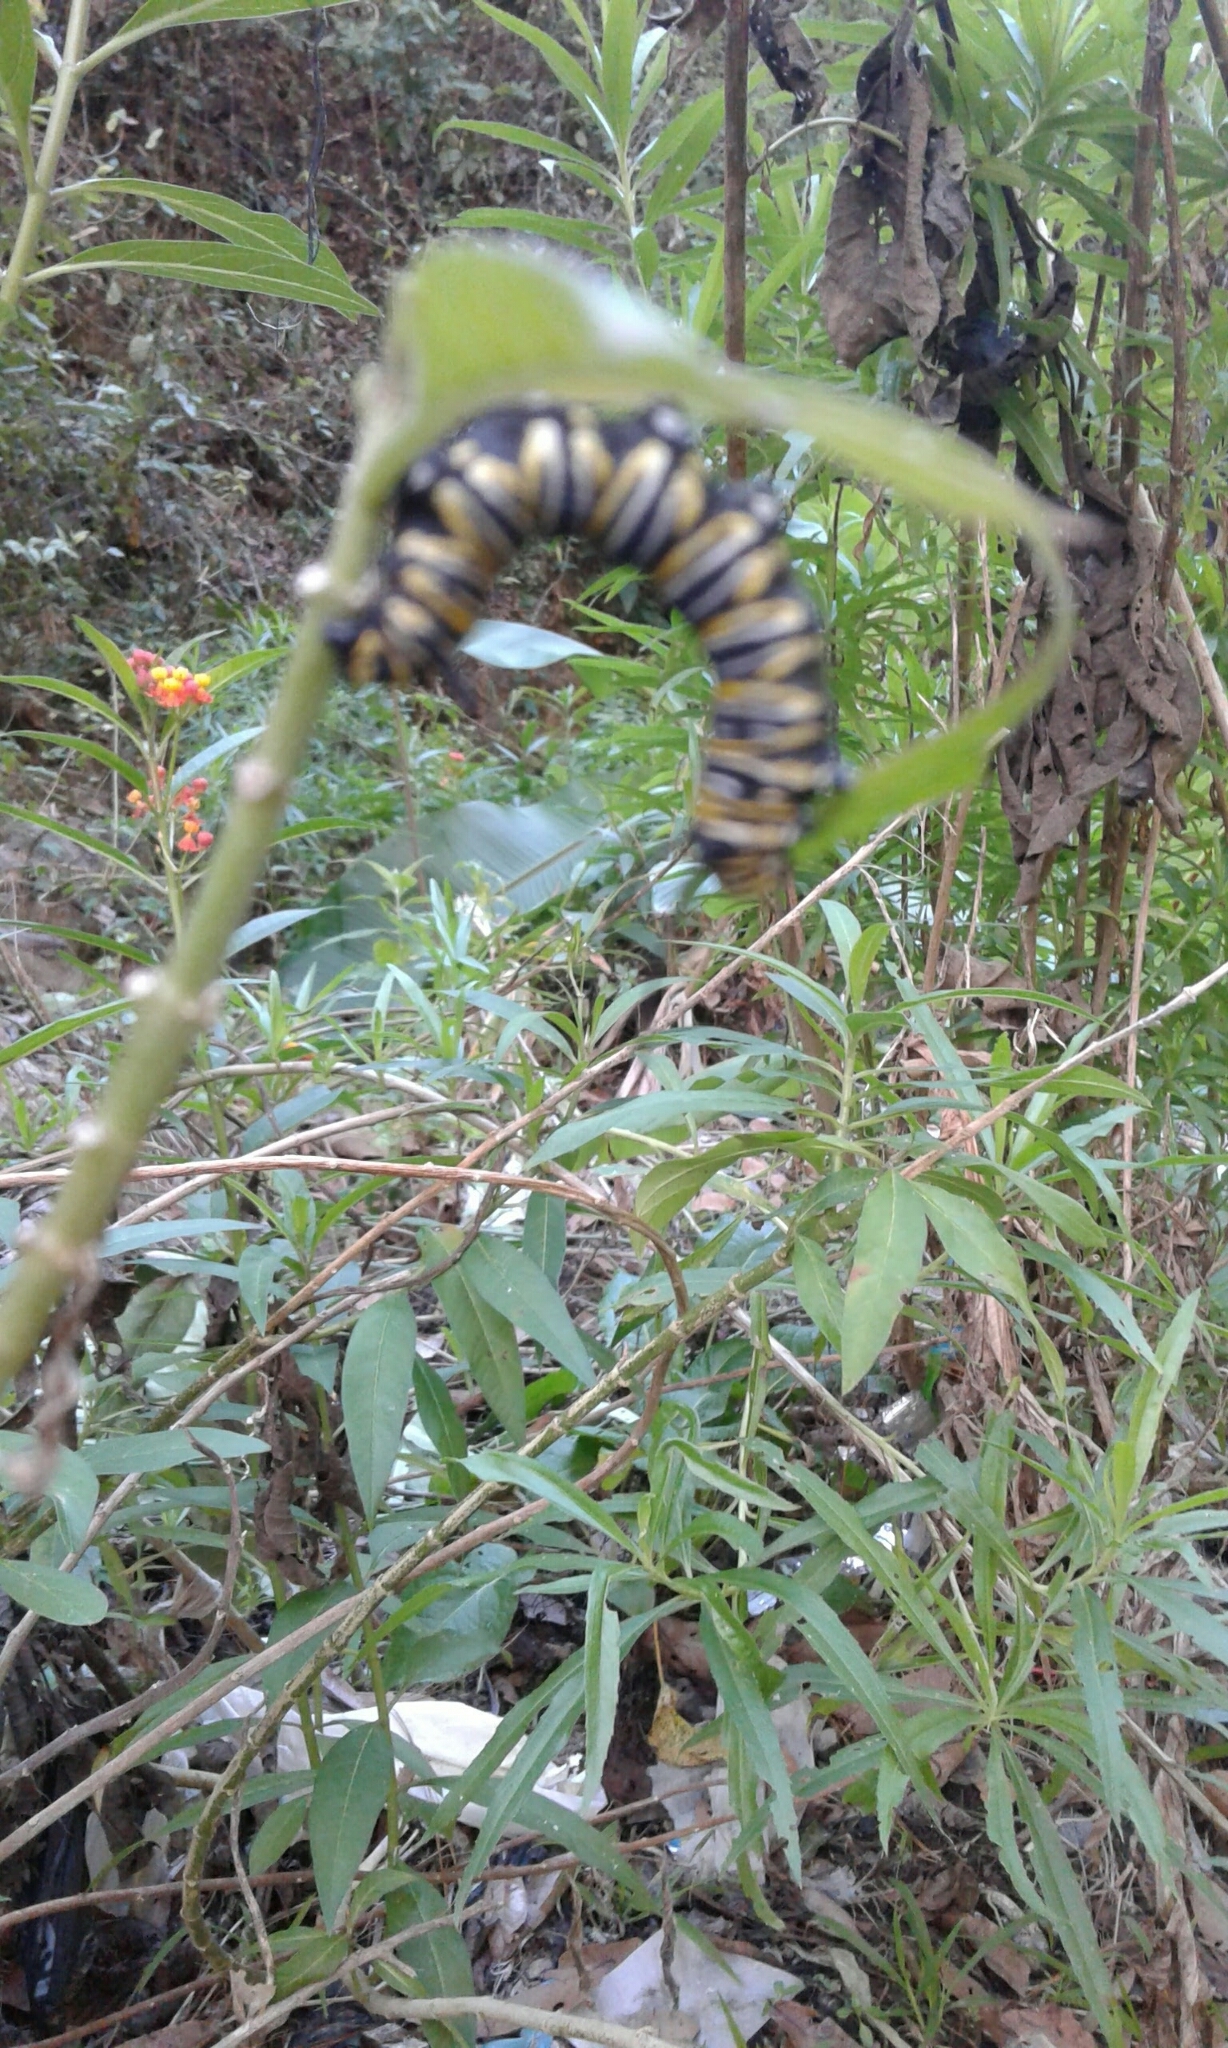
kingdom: Animalia
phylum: Arthropoda
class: Insecta
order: Lepidoptera
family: Nymphalidae
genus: Danaus
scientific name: Danaus plexippus
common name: Monarch
